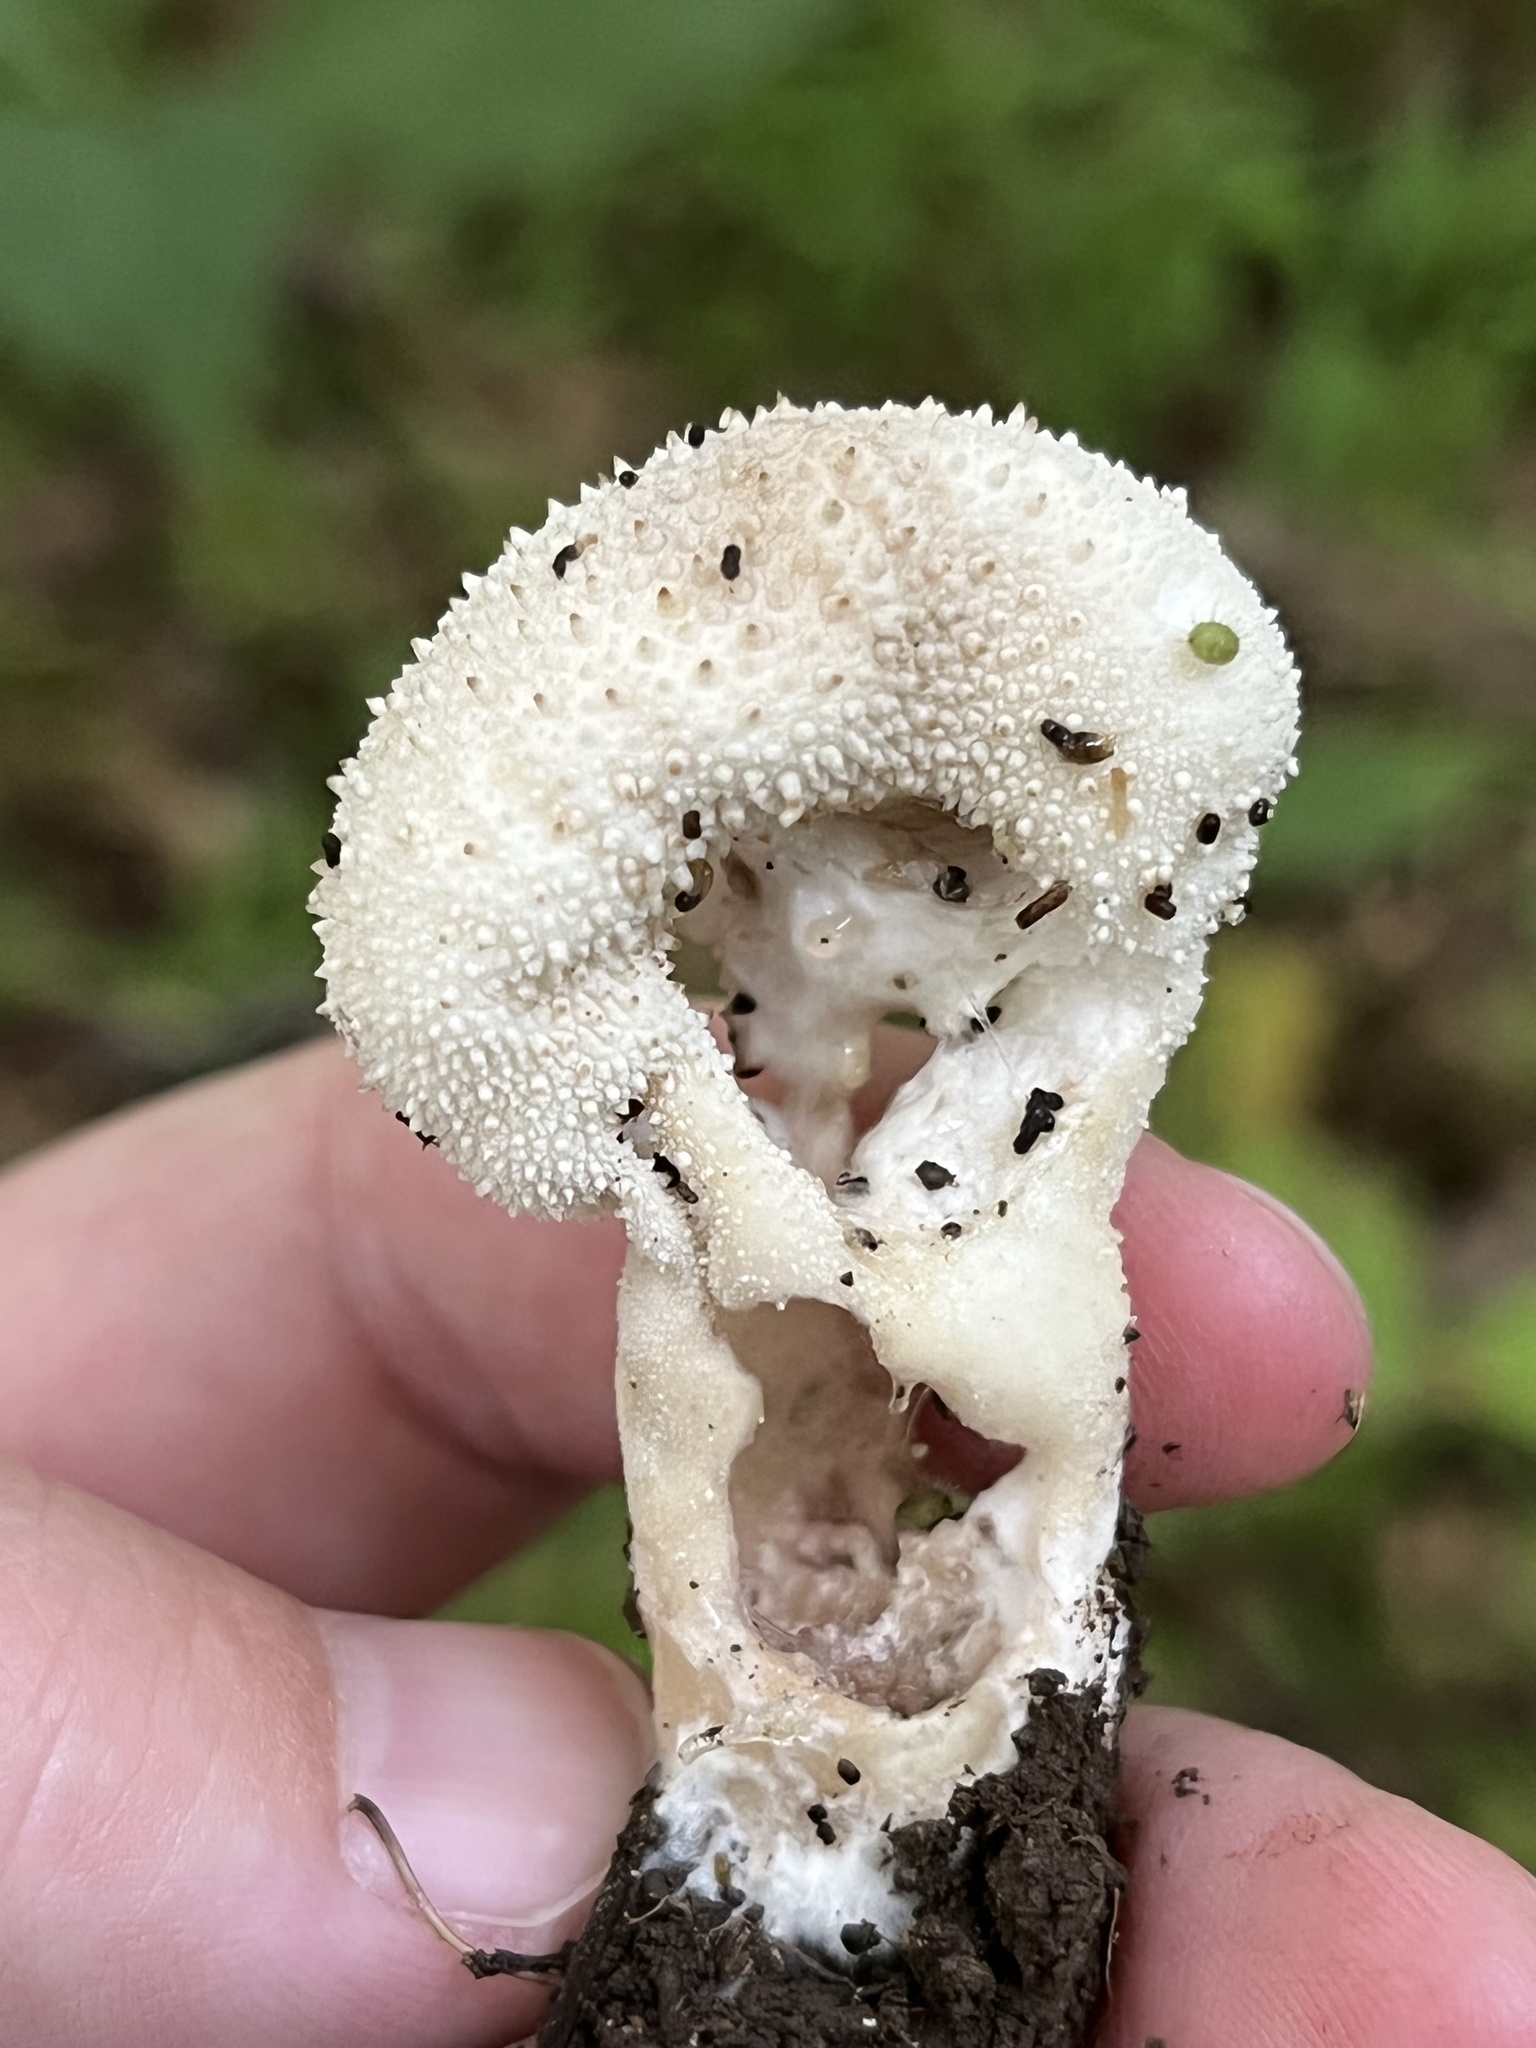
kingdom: Fungi
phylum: Basidiomycota
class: Agaricomycetes
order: Agaricales
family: Lycoperdaceae
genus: Lycoperdon
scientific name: Lycoperdon perlatum
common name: Common puffball
